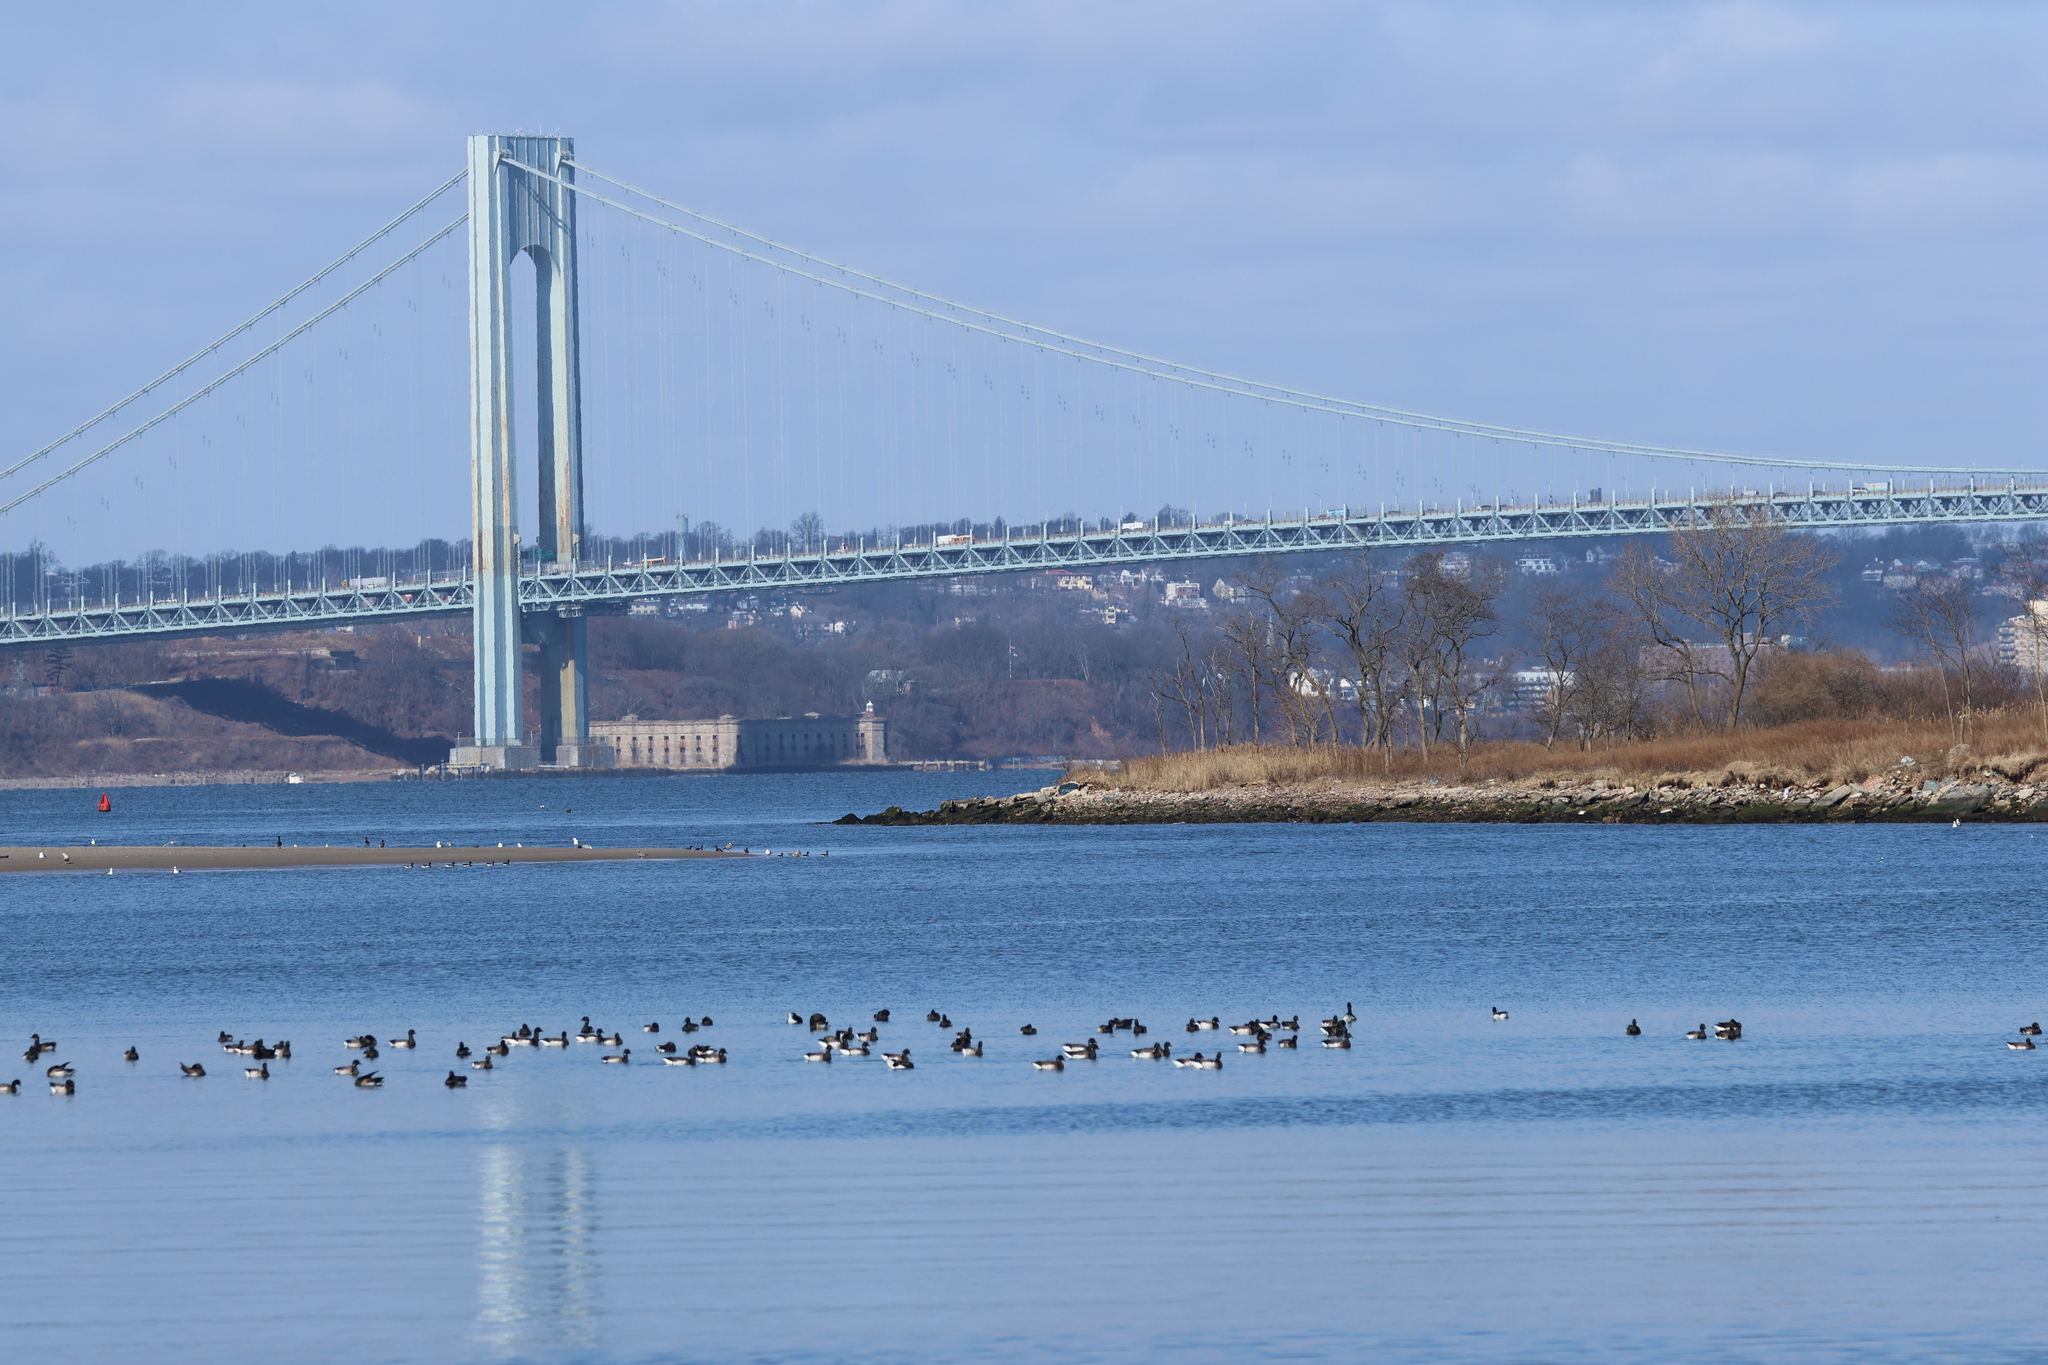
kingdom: Animalia
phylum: Chordata
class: Aves
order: Anseriformes
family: Anatidae
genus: Branta
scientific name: Branta bernicla
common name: Brant goose
